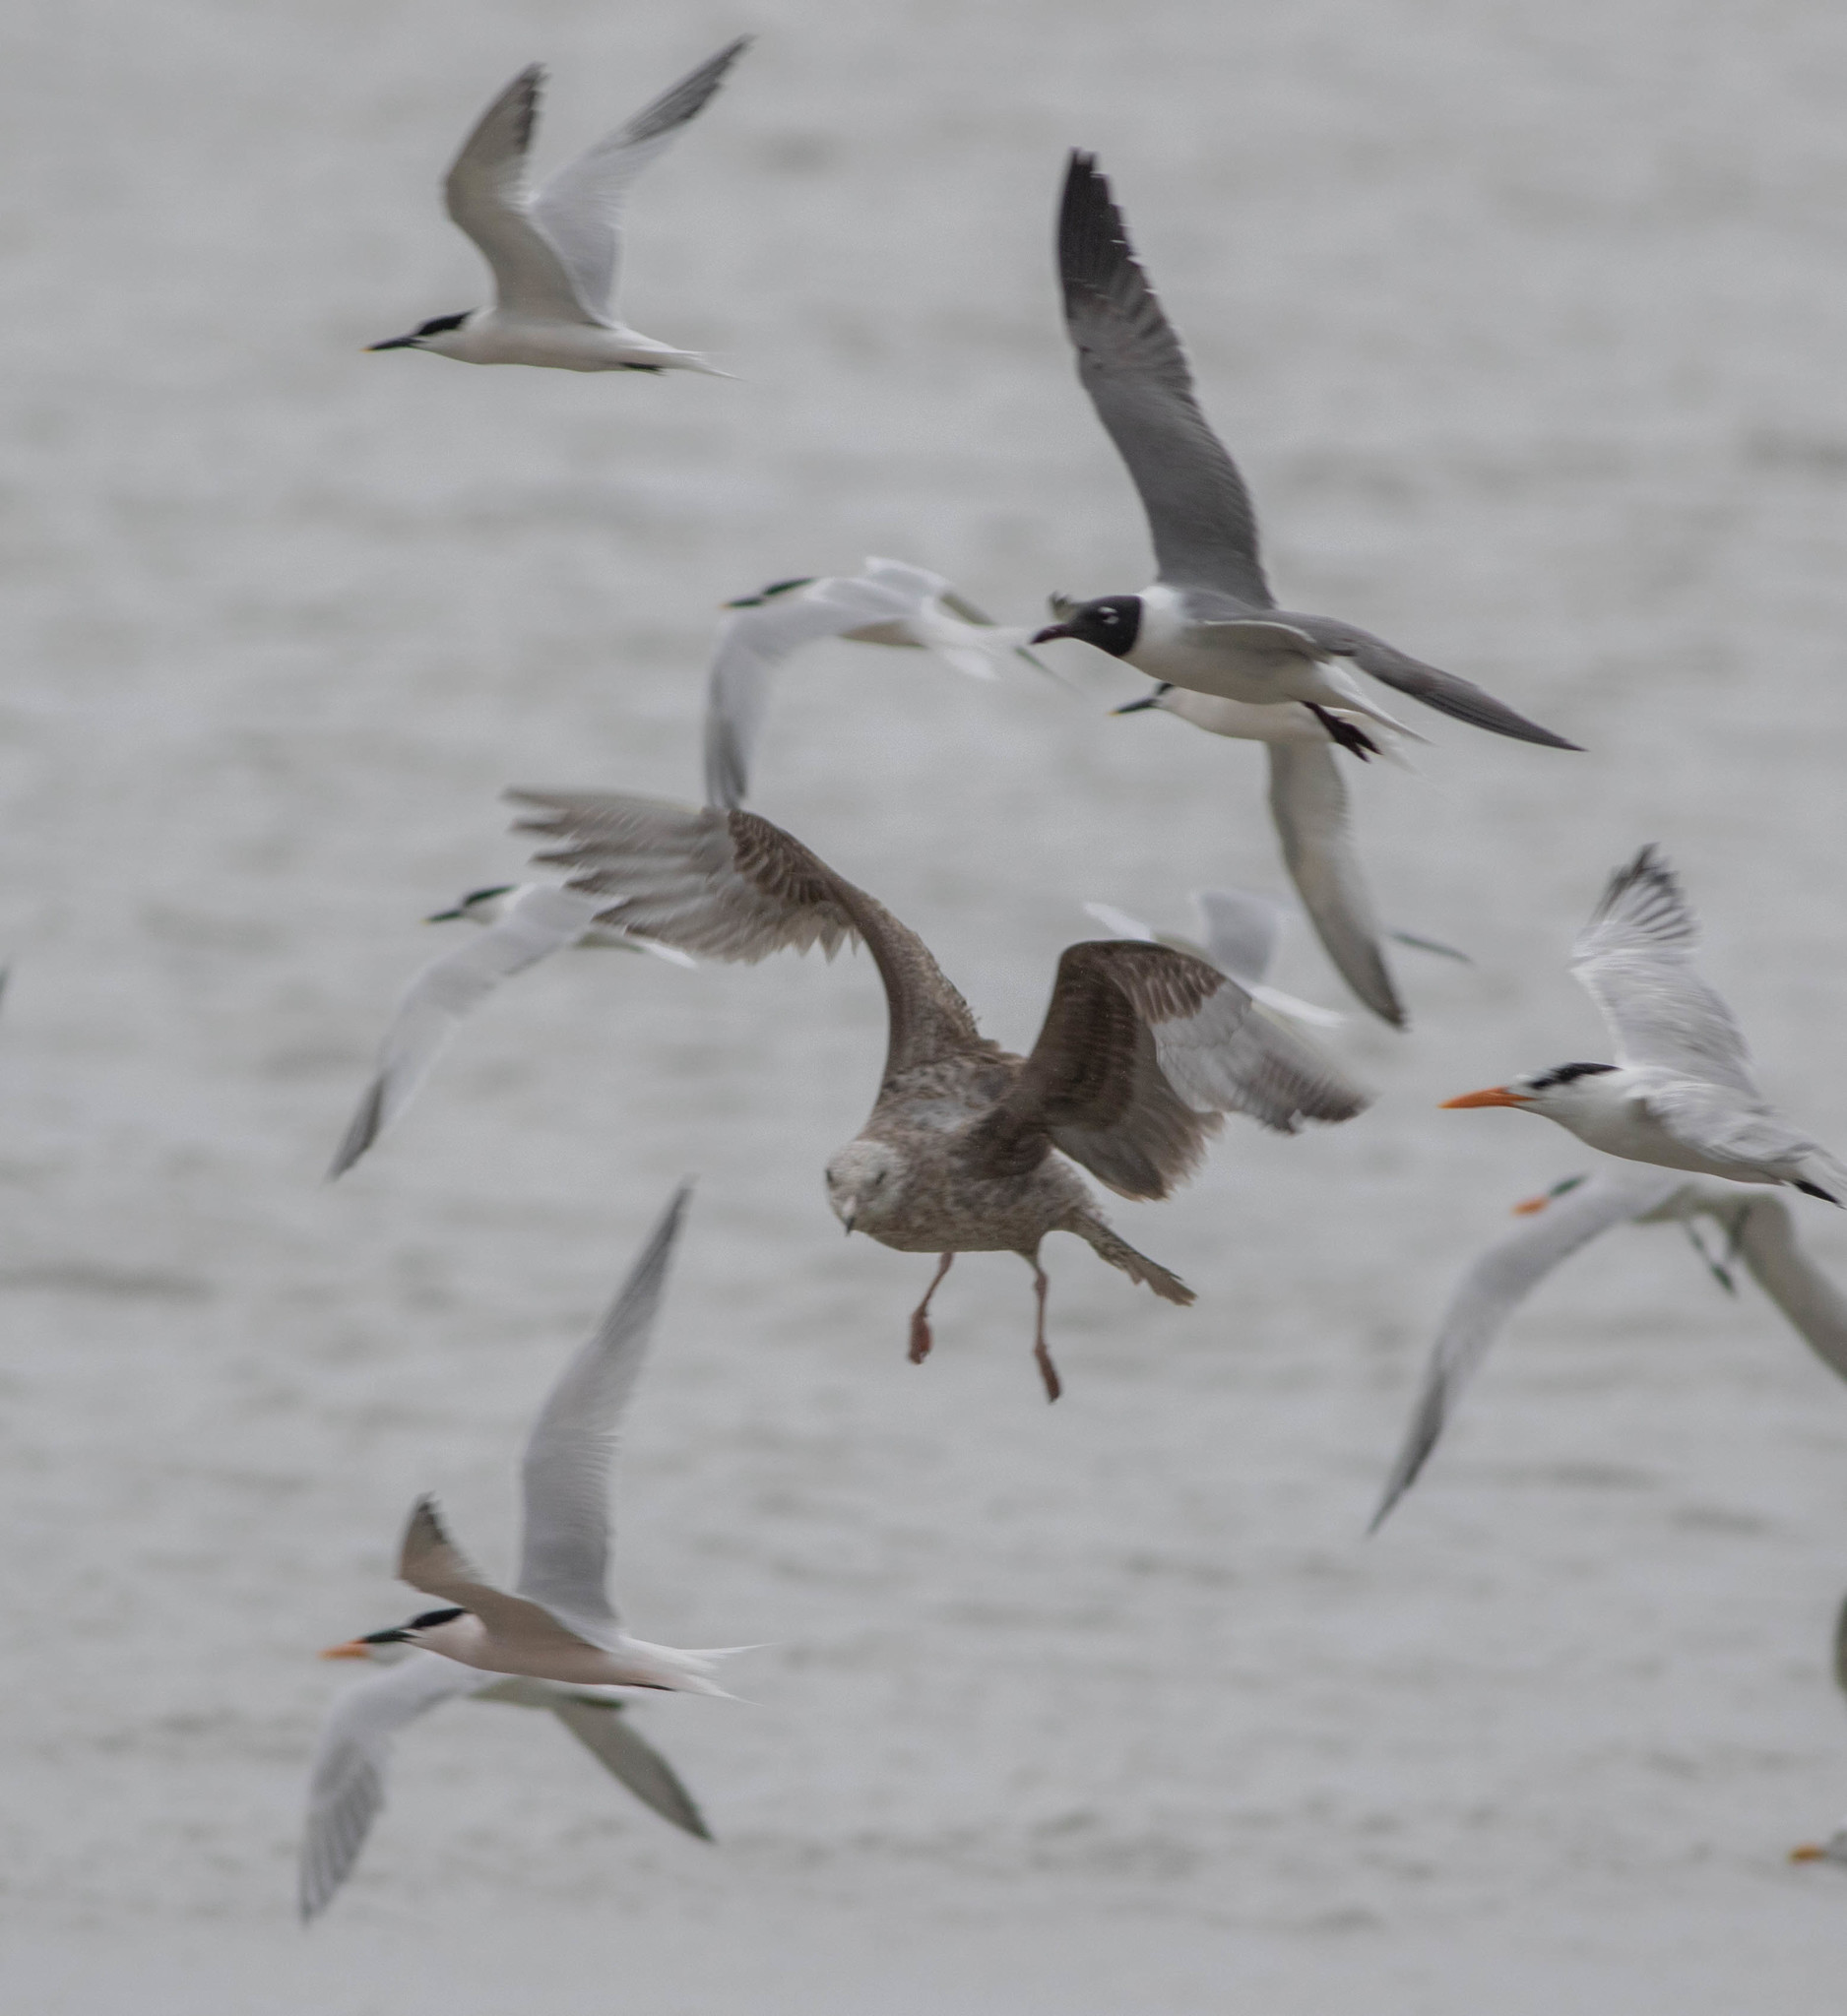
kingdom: Animalia
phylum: Chordata
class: Aves
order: Charadriiformes
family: Laridae
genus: Larus
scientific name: Larus argentatus
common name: Herring gull
